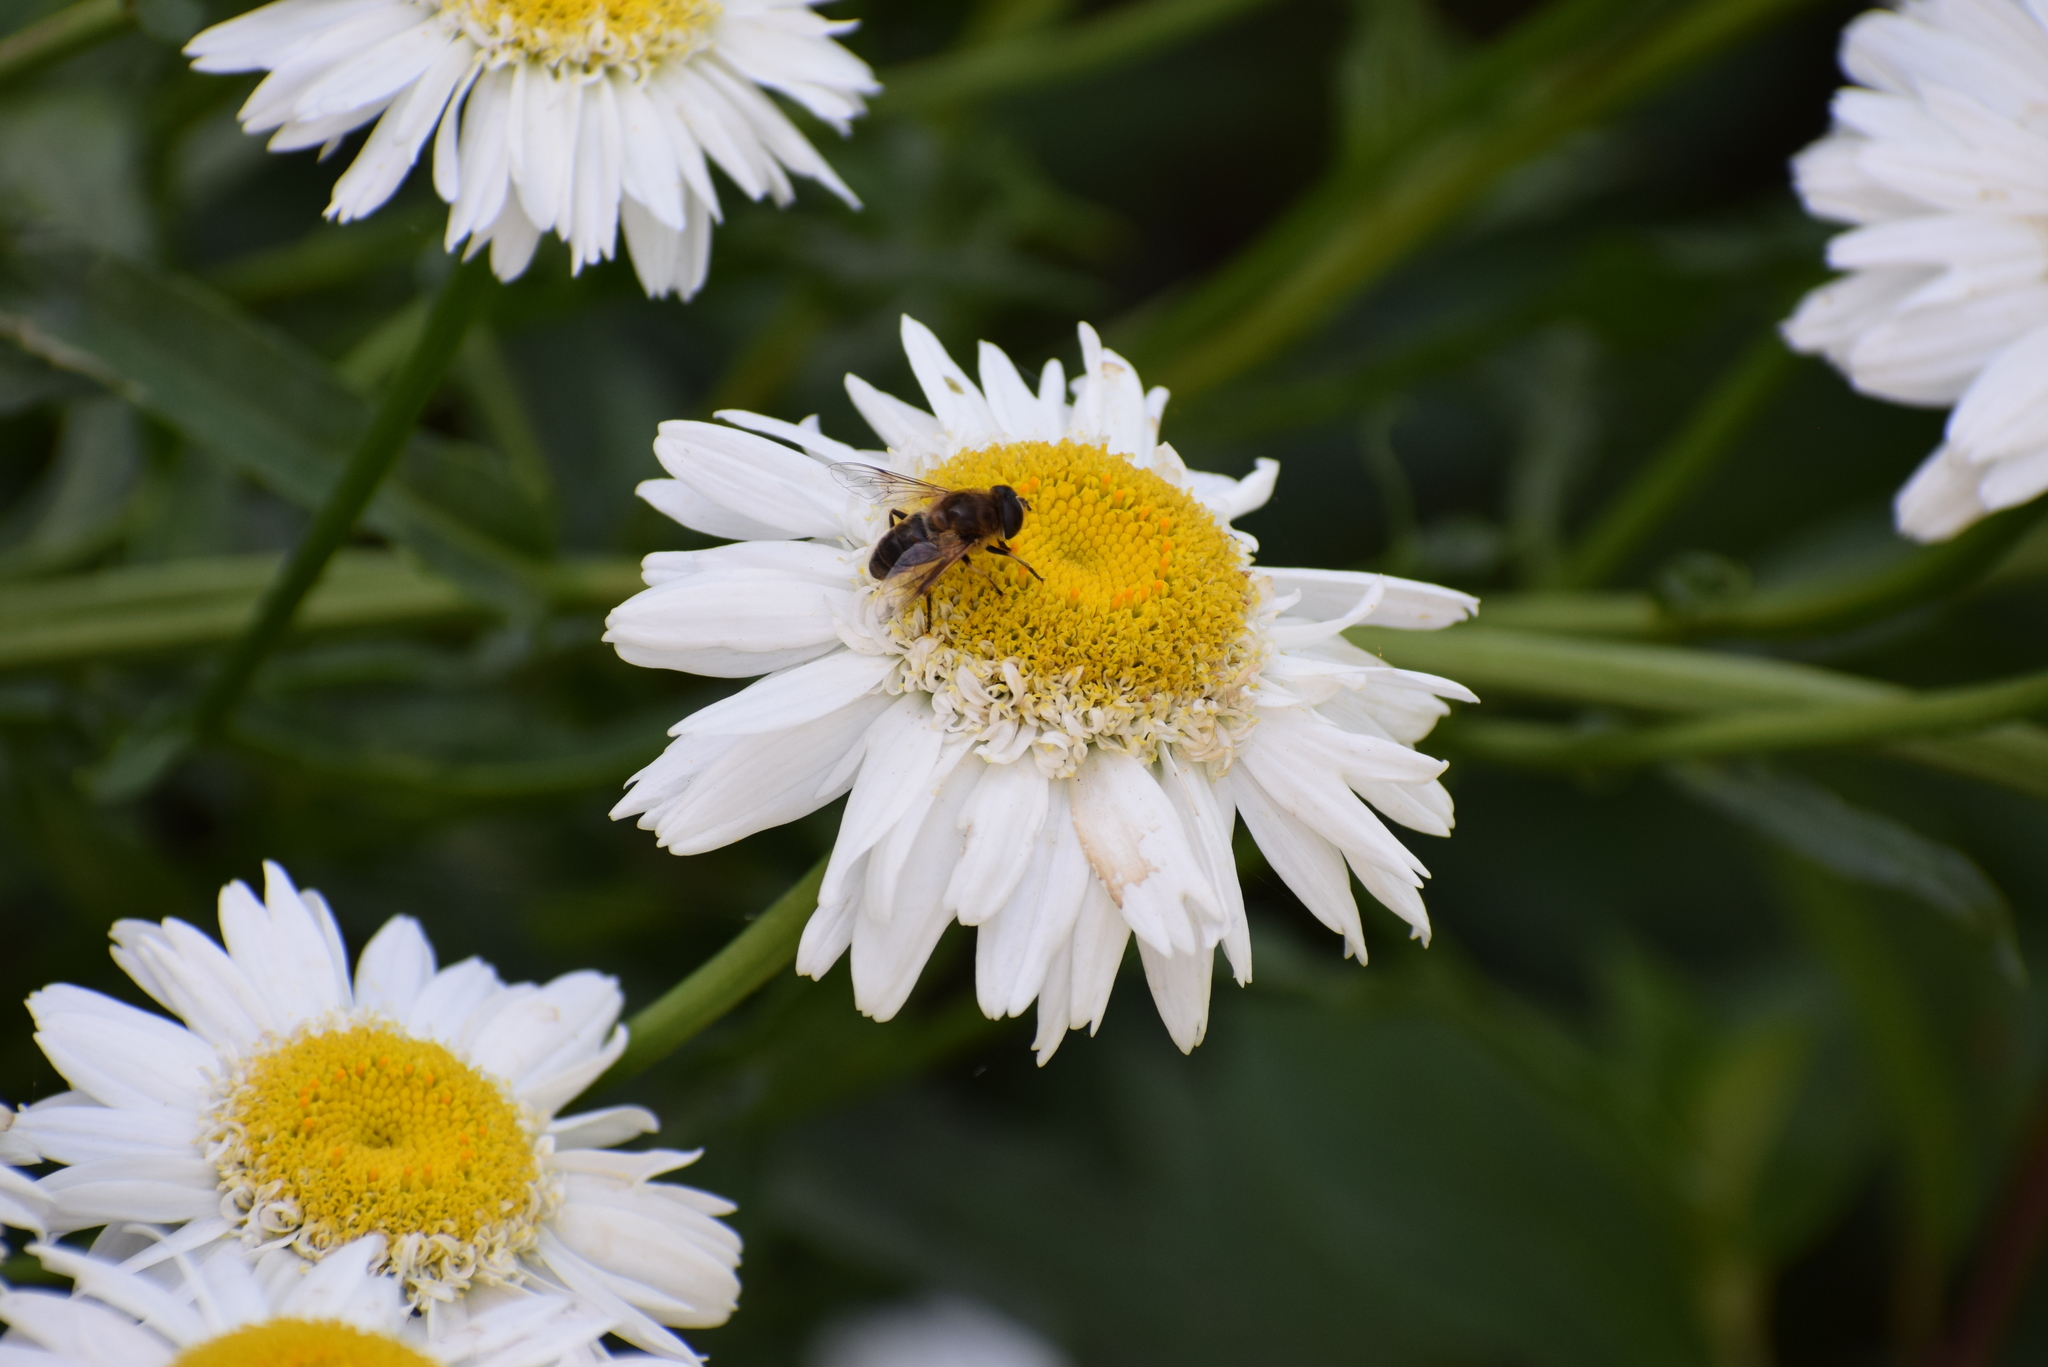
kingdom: Animalia
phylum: Arthropoda
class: Insecta
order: Diptera
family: Syrphidae
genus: Eristalis
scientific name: Eristalis tenax
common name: Drone fly
